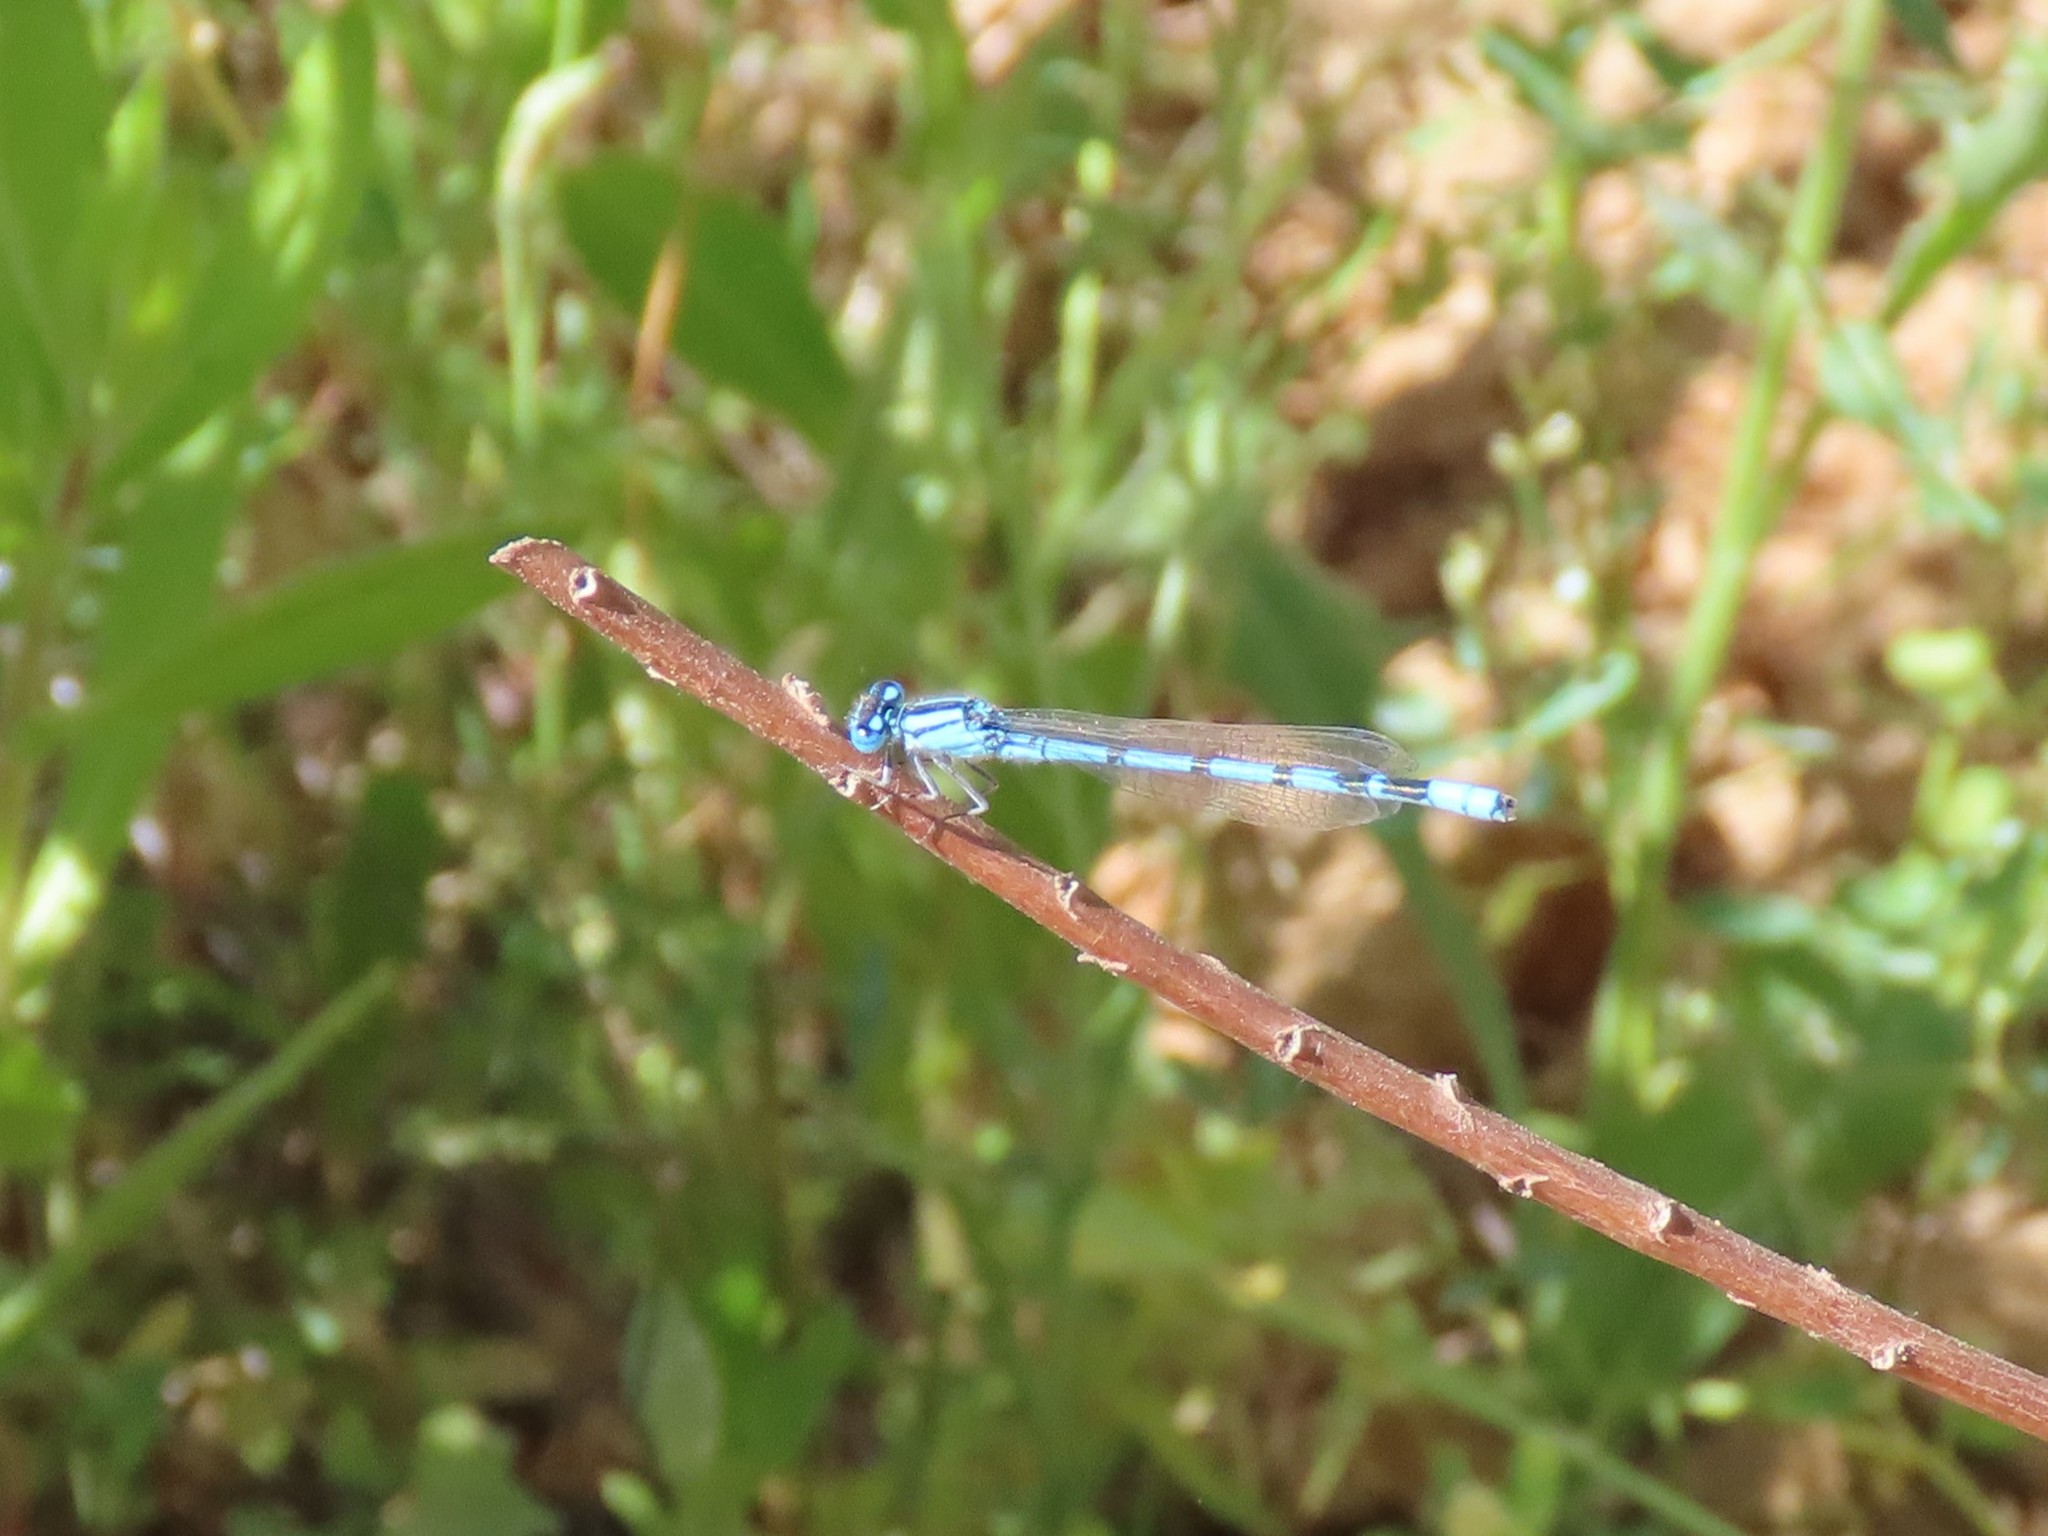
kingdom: Animalia
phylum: Arthropoda
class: Insecta
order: Odonata
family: Coenagrionidae
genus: Enallagma
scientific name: Enallagma cyathigerum
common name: Common blue damselfly
